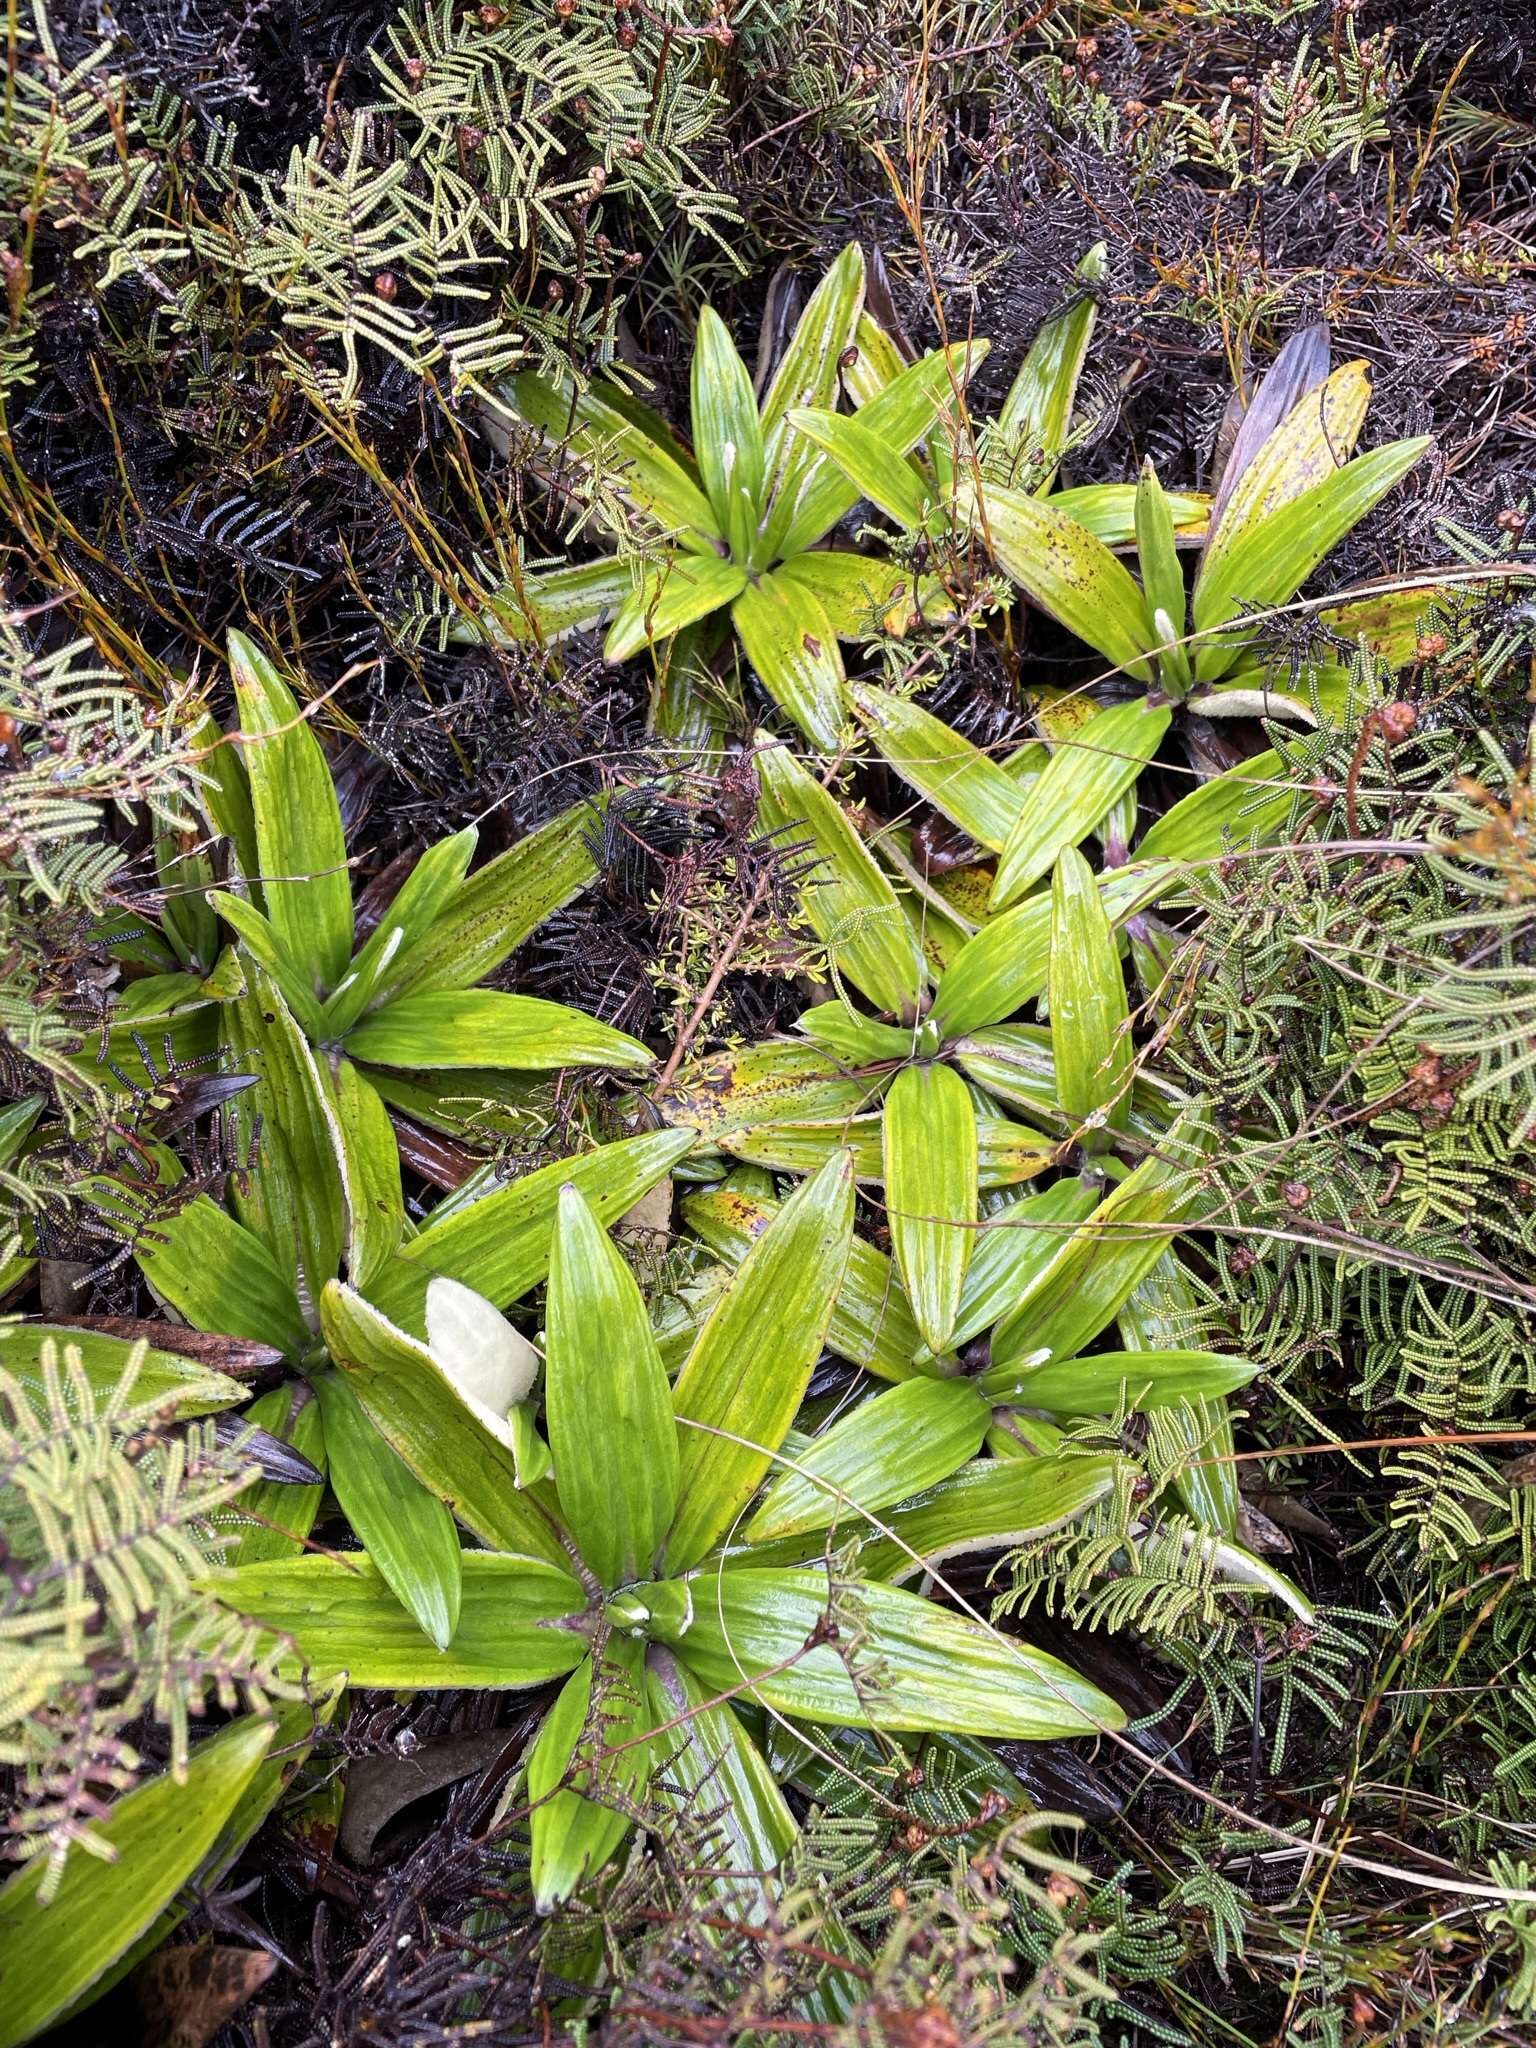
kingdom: Plantae
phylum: Tracheophyta
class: Magnoliopsida
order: Asterales
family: Asteraceae
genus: Celmisia
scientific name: Celmisia spectabilis
